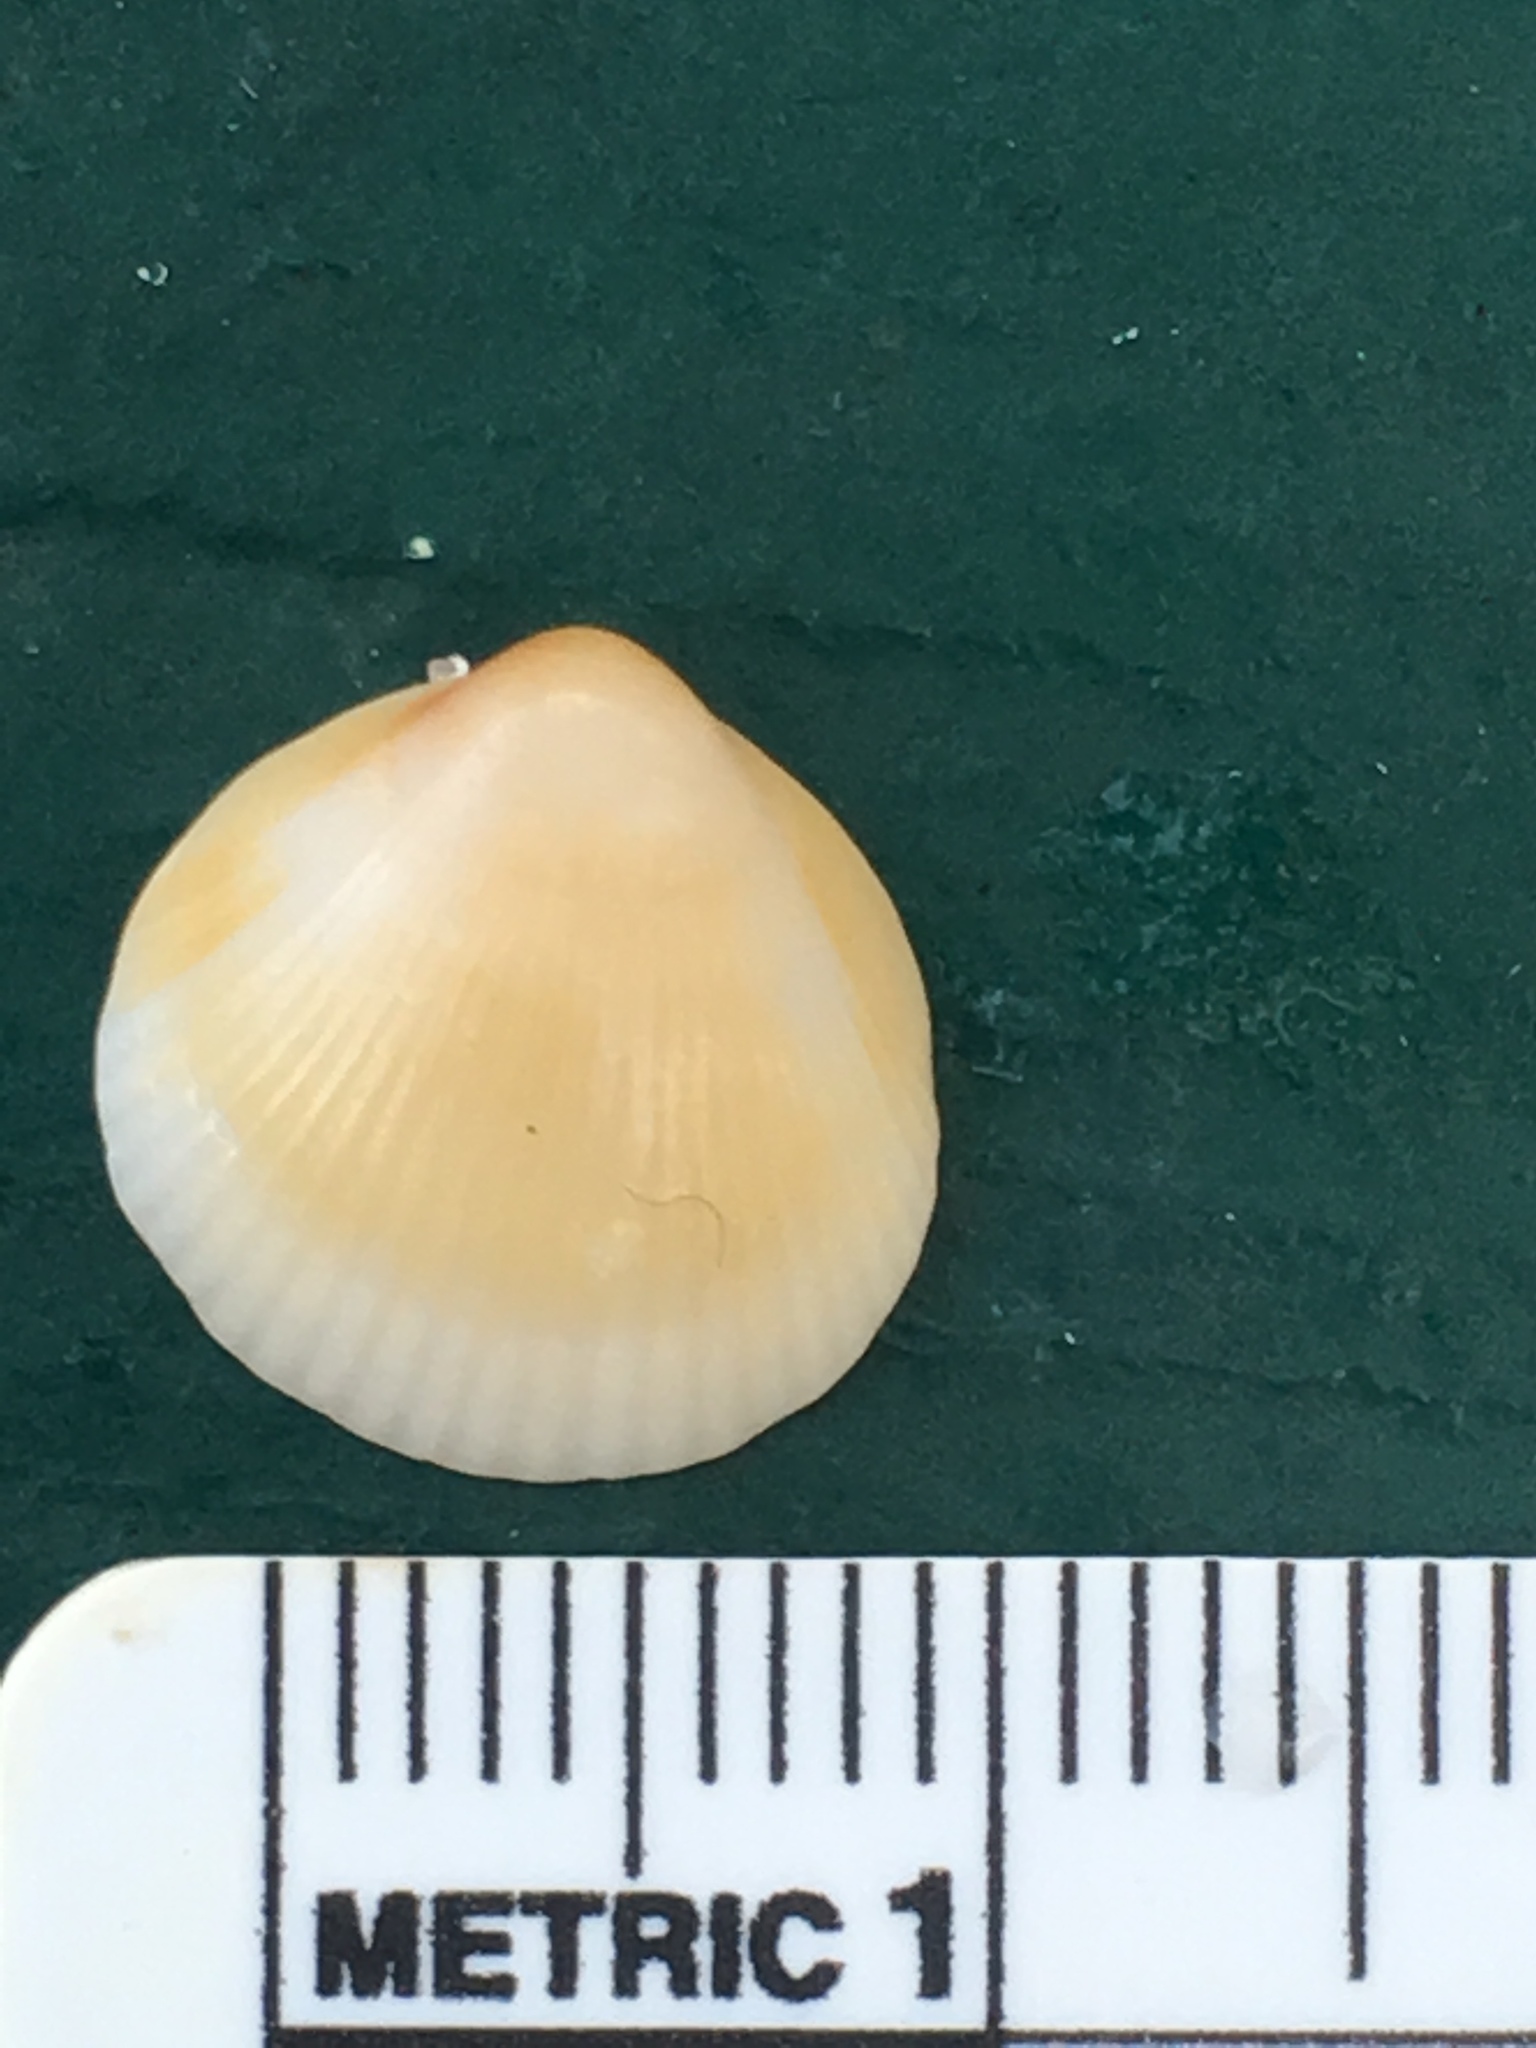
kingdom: Animalia
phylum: Mollusca
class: Bivalvia
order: Arcida
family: Glycymerididae
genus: Glycymeris
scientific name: Glycymeris spectralis
